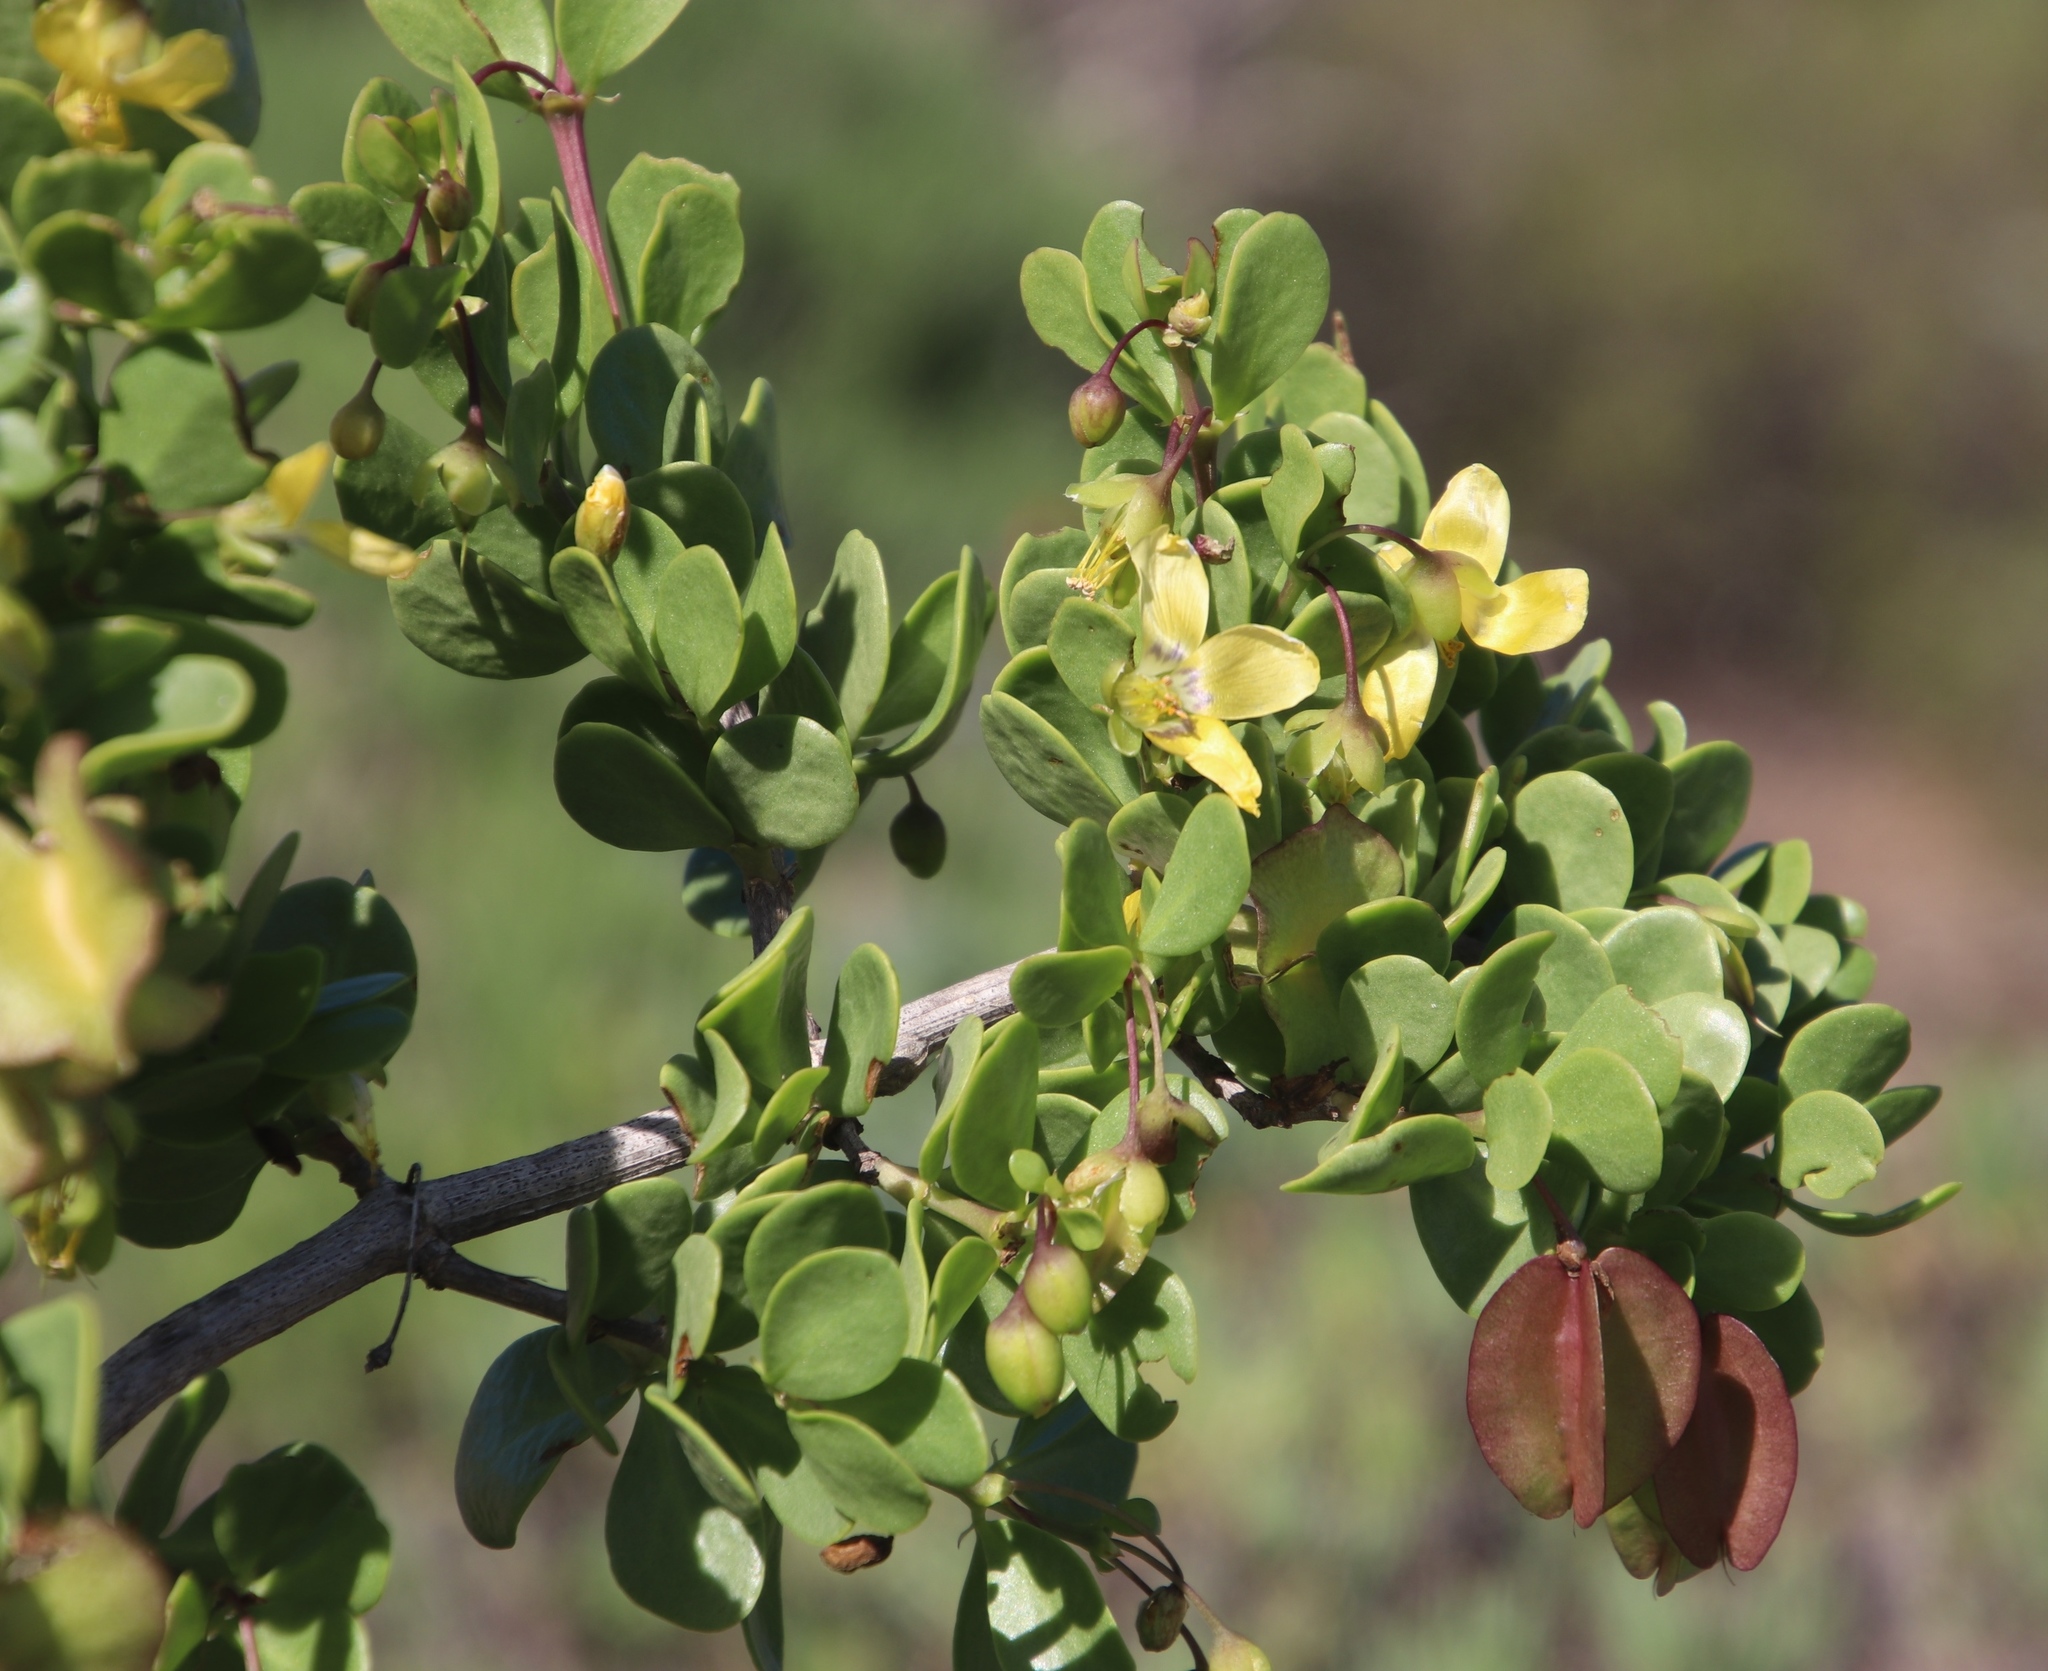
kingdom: Plantae
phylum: Tracheophyta
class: Magnoliopsida
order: Zygophyllales
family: Zygophyllaceae
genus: Roepera
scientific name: Roepera morgsana
